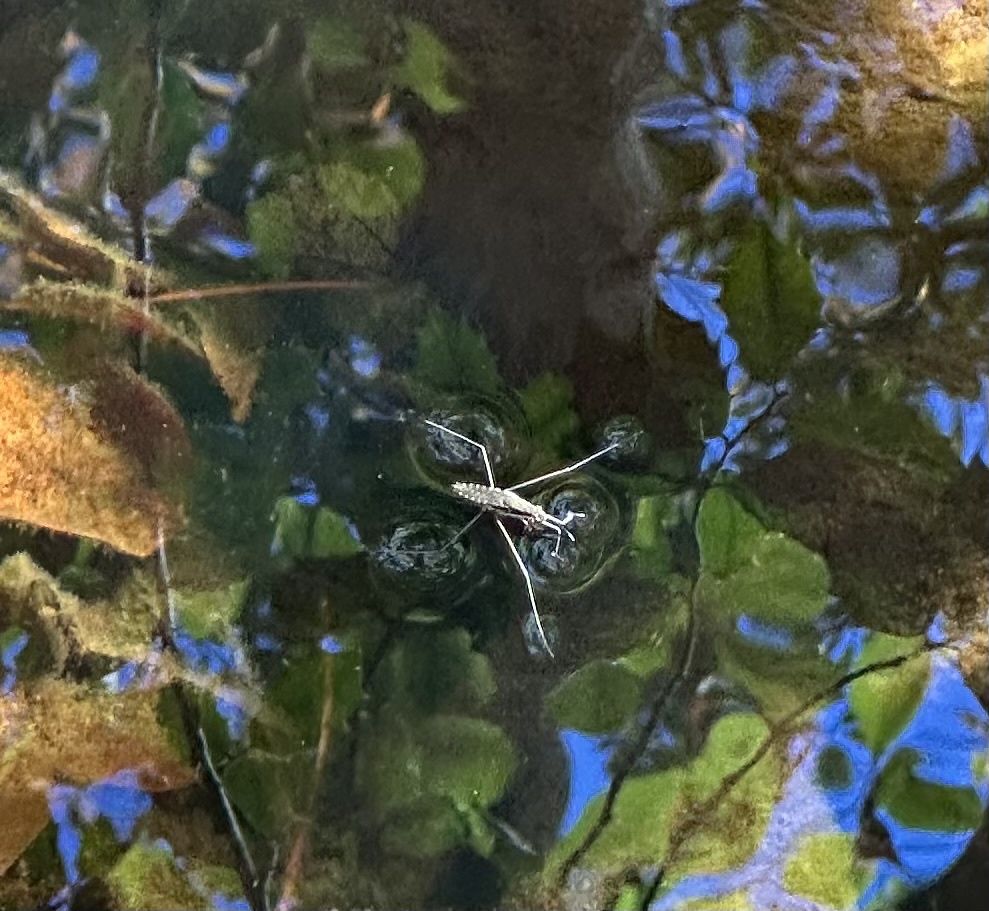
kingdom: Animalia
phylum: Arthropoda
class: Insecta
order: Hemiptera
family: Gerridae
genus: Aquarius
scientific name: Aquarius
